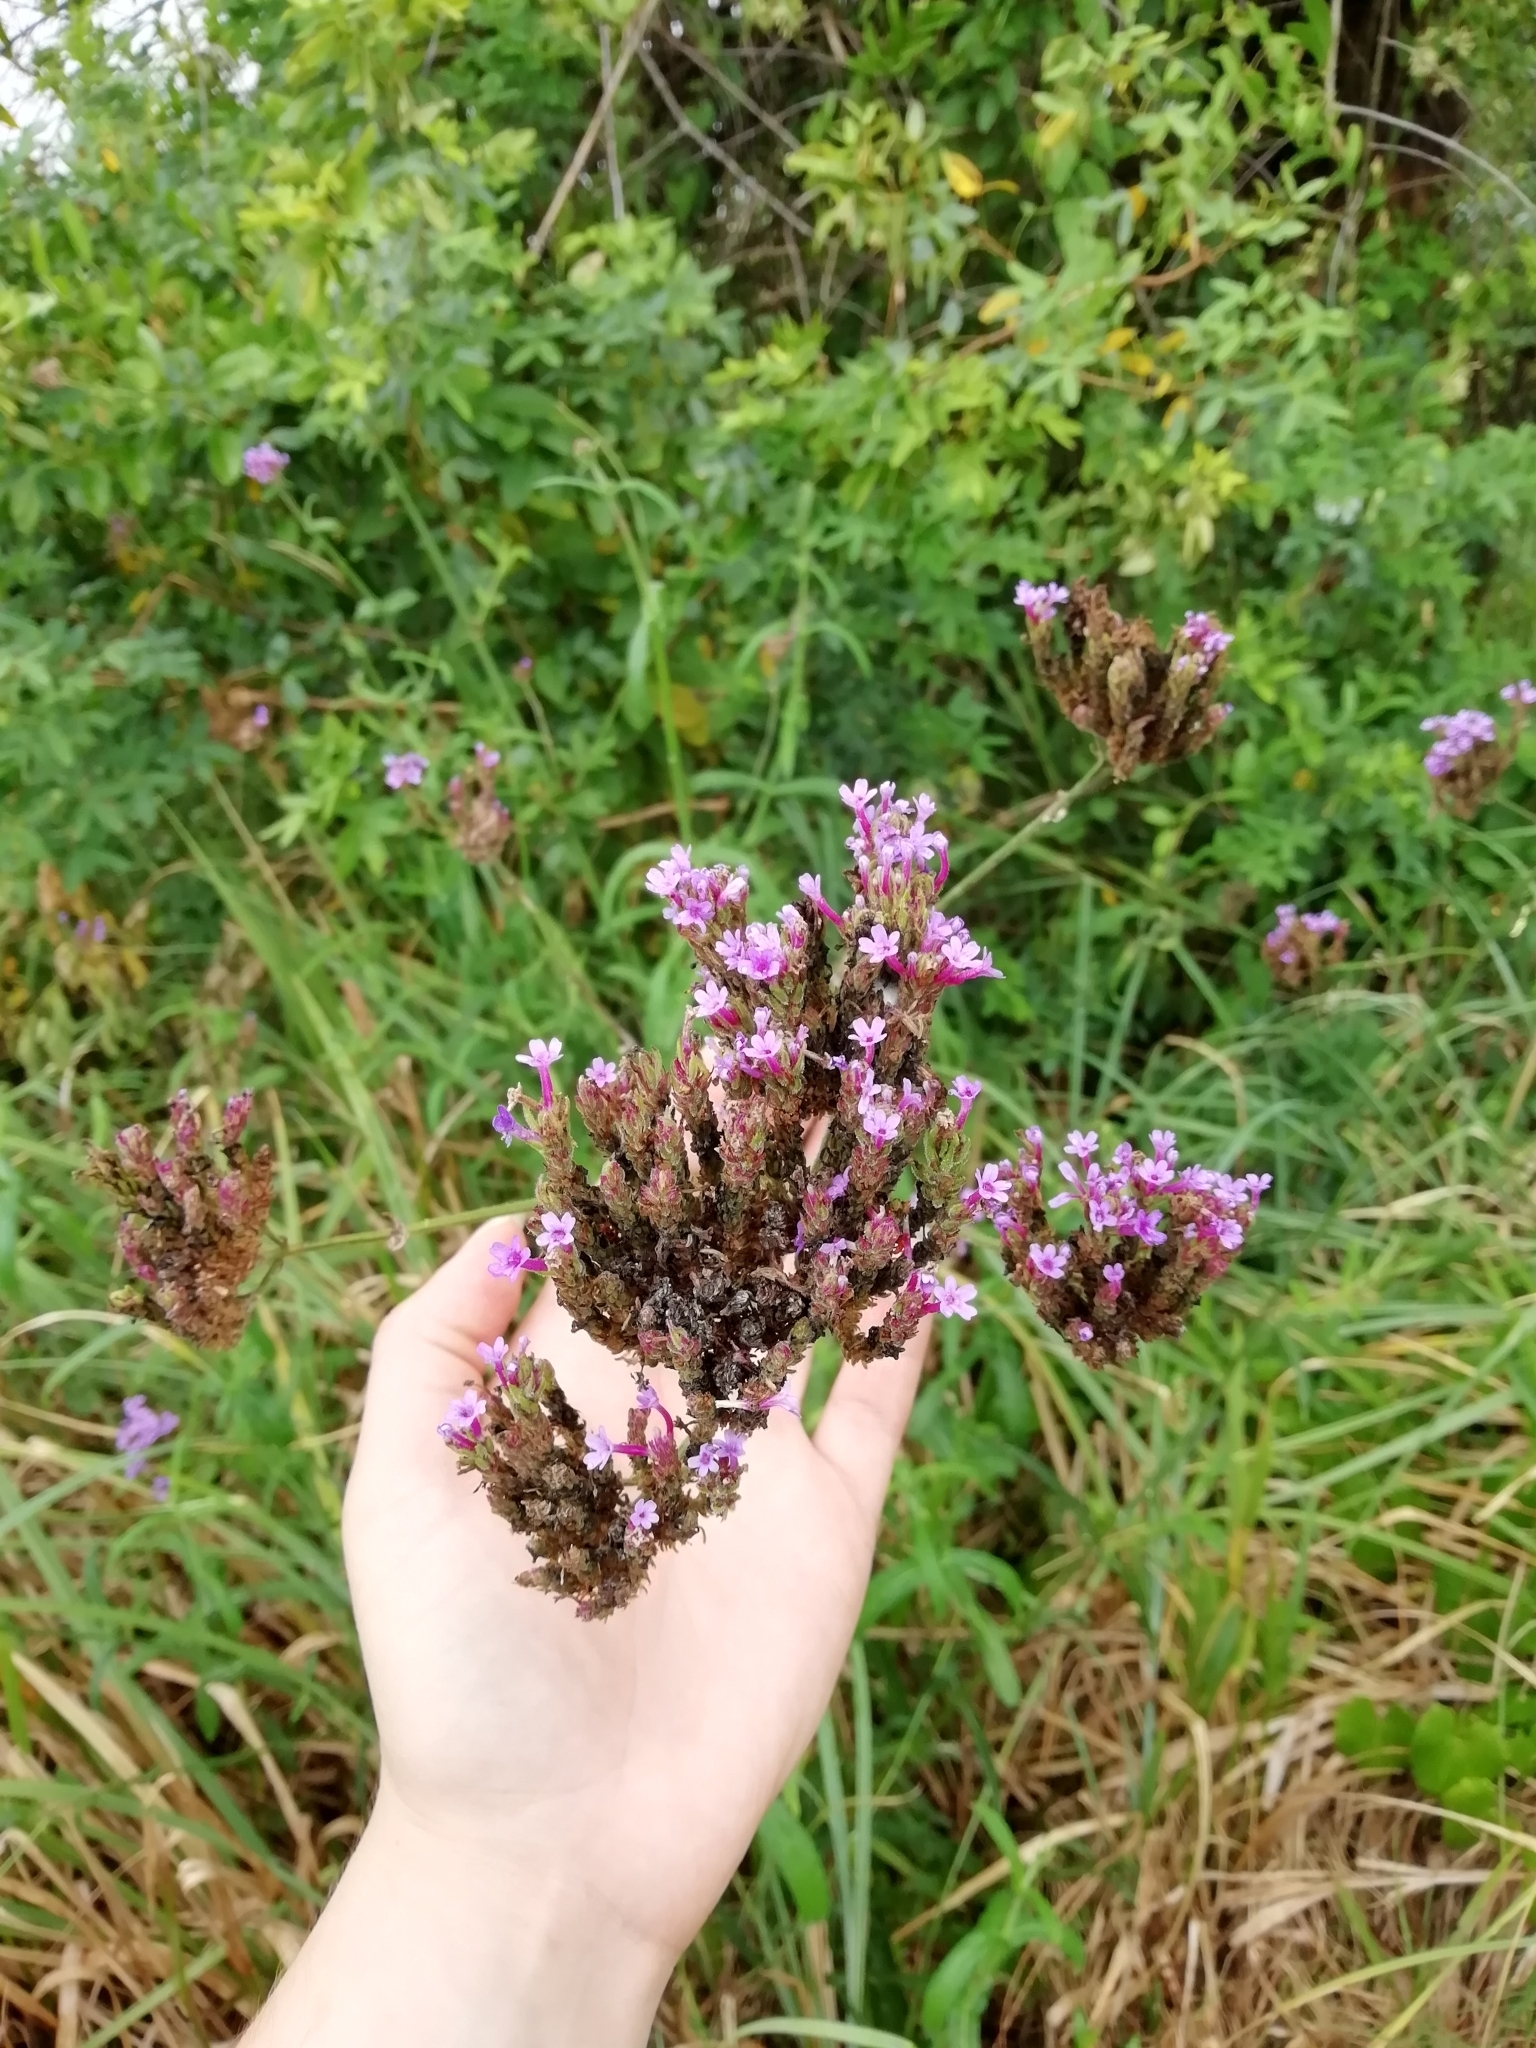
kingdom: Plantae
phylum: Tracheophyta
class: Magnoliopsida
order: Lamiales
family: Verbenaceae
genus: Verbena
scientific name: Verbena bonariensis
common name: Purpletop vervain
